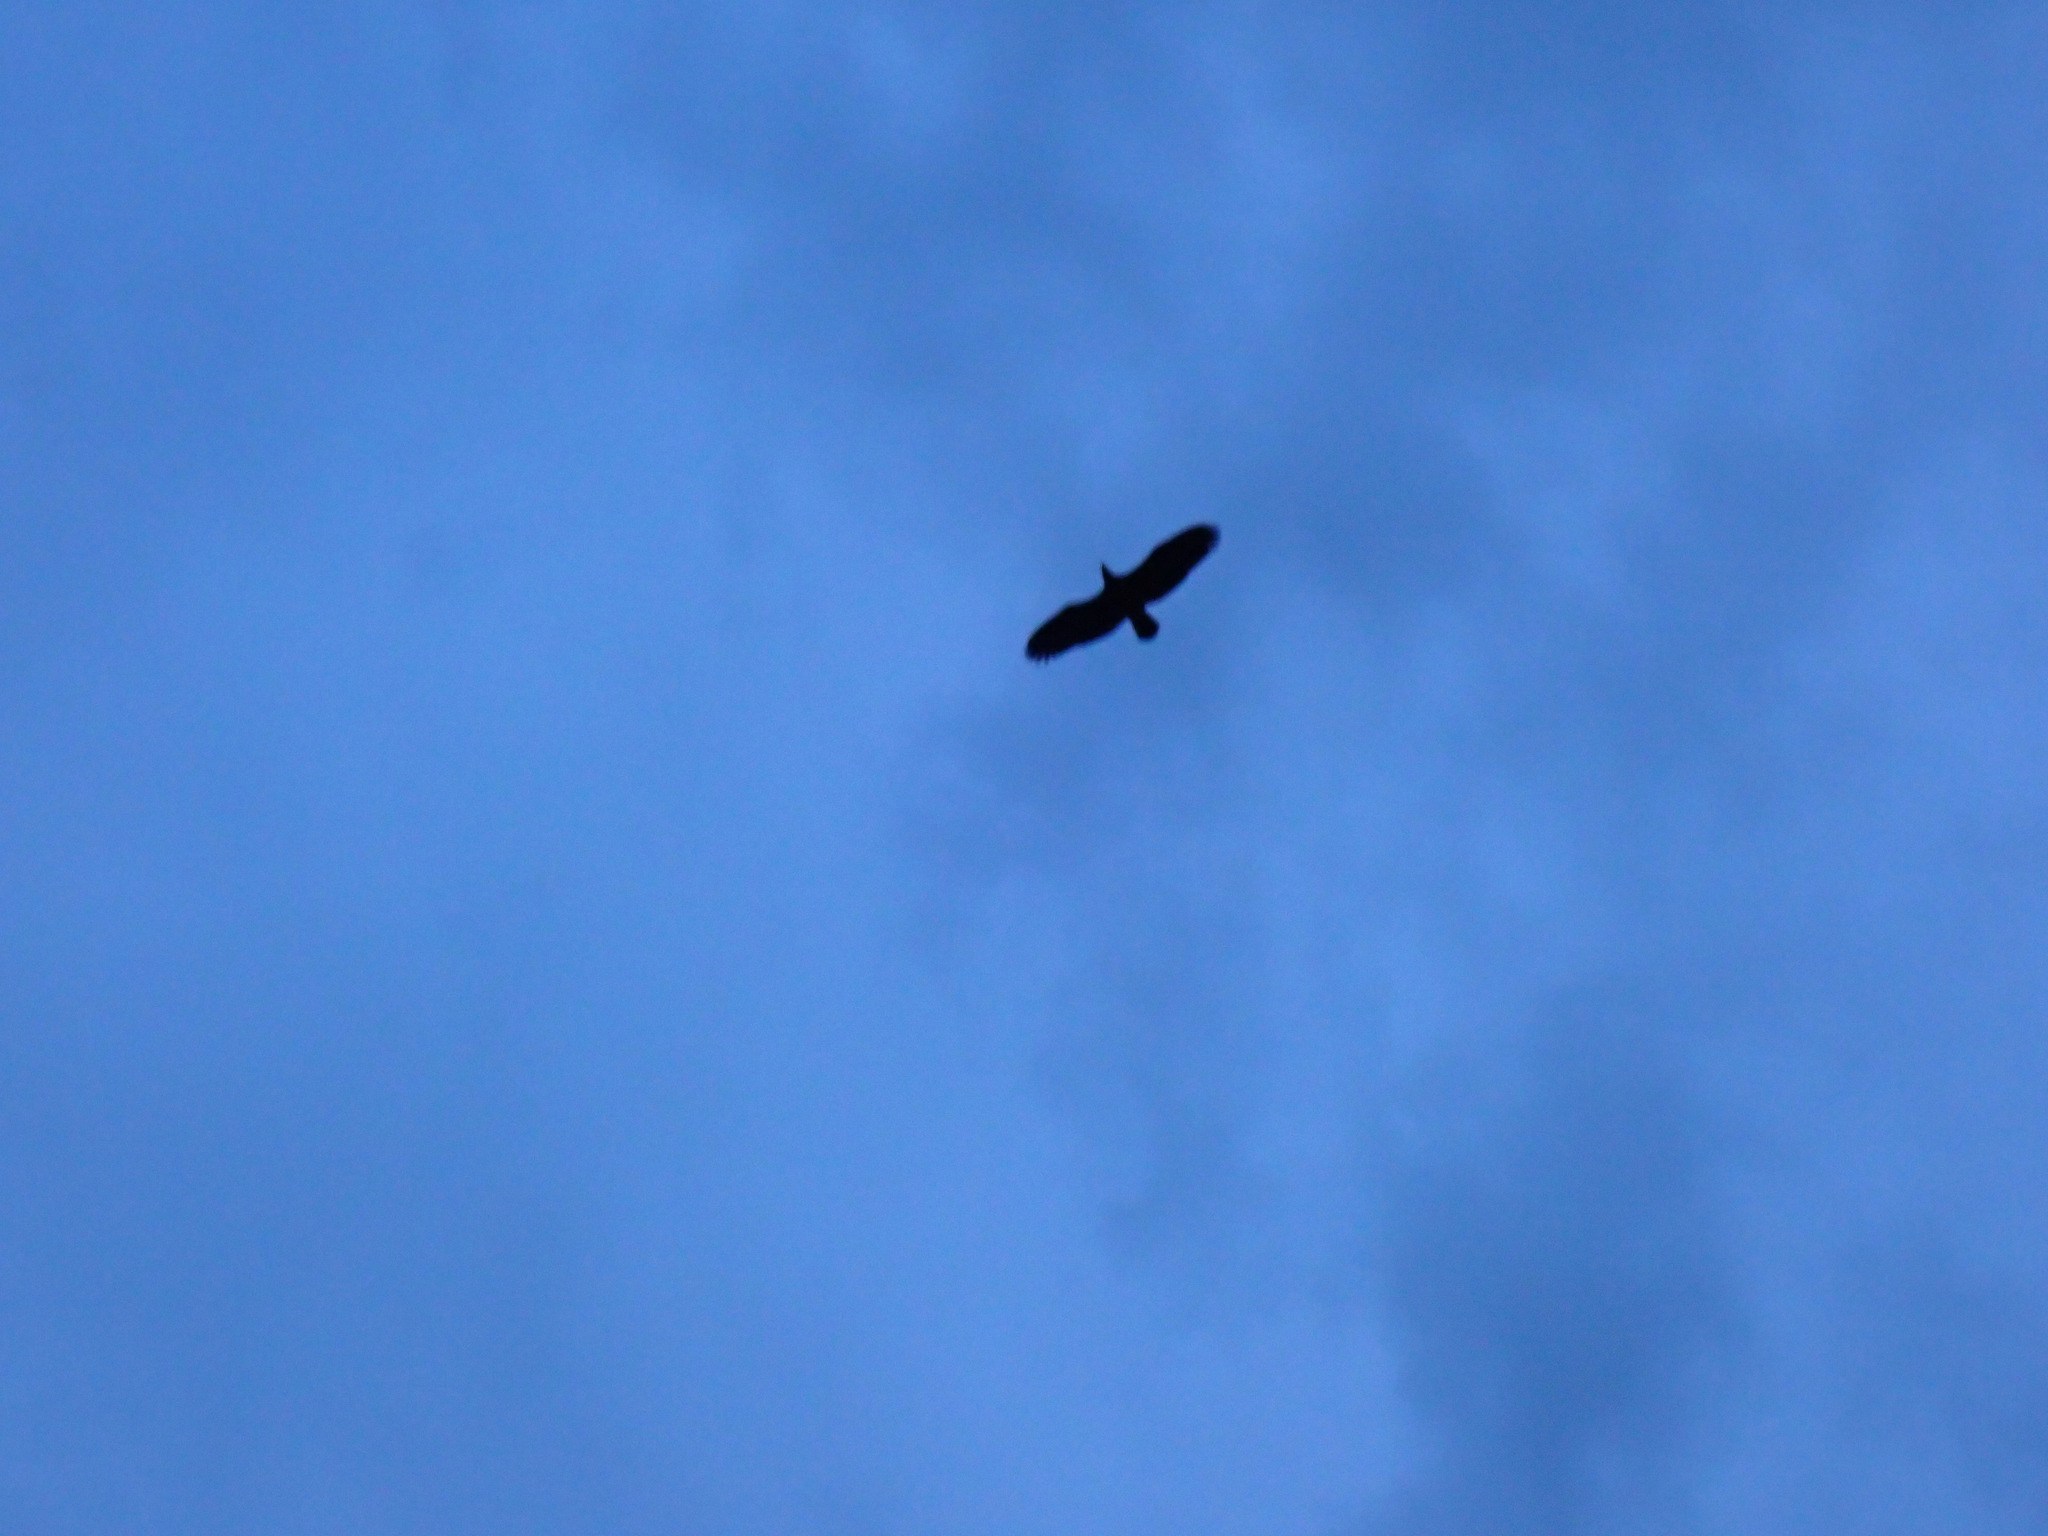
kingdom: Animalia
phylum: Chordata
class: Aves
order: Accipitriformes
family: Accipitridae
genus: Haliaeetus
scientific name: Haliaeetus leucocephalus
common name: Bald eagle
